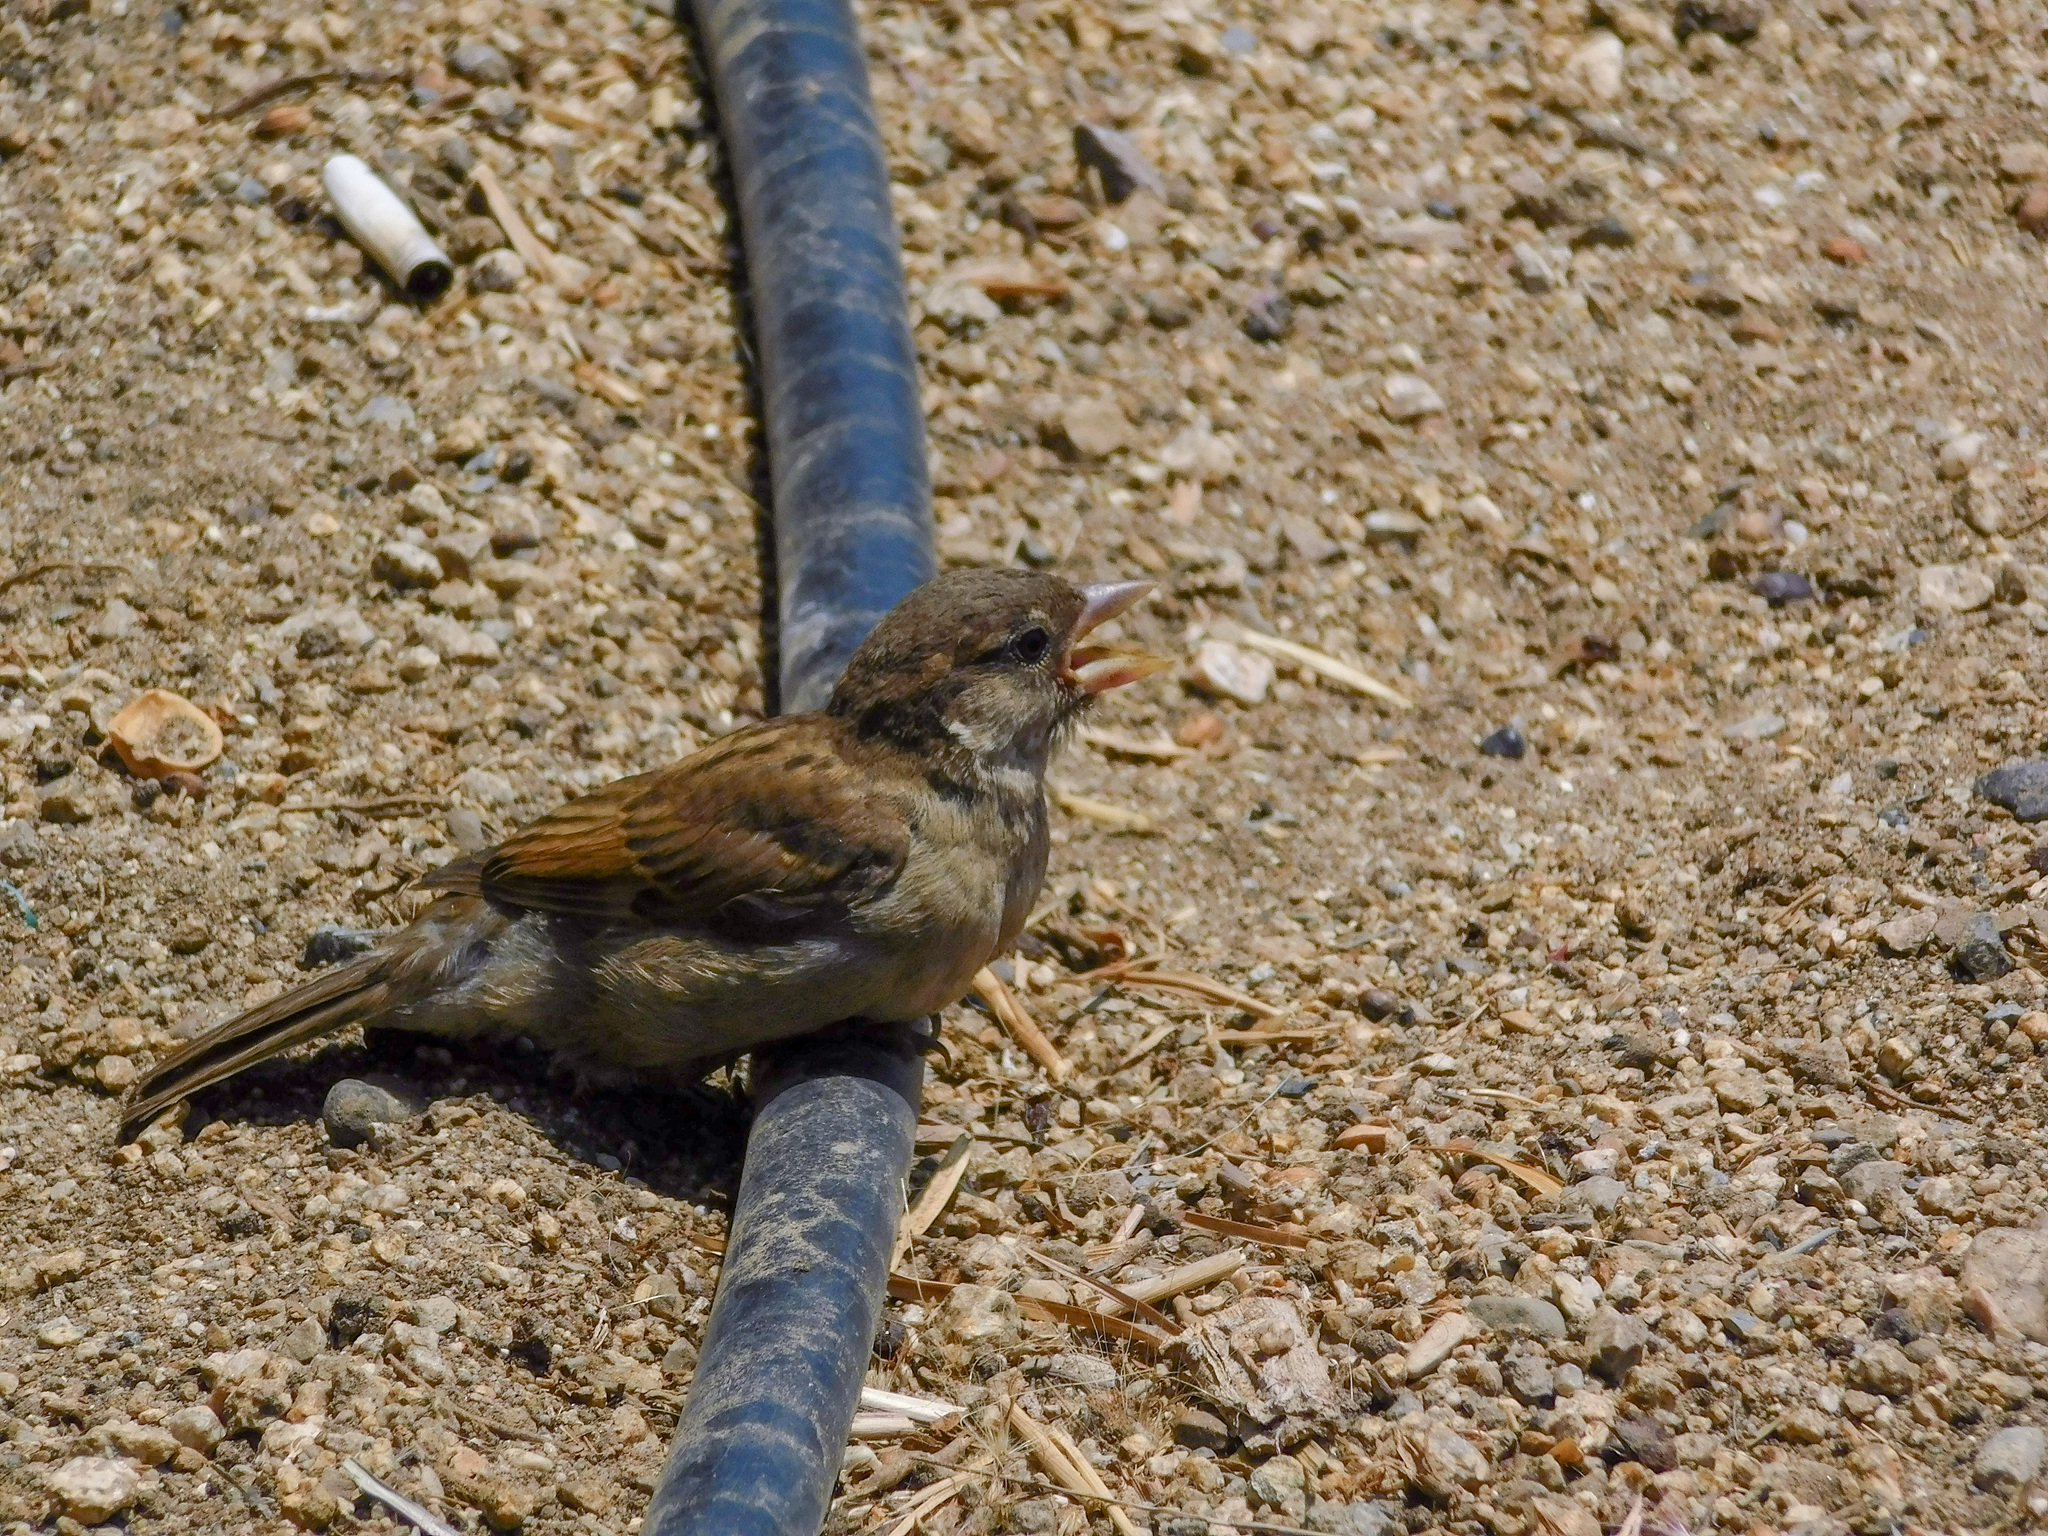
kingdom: Animalia
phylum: Chordata
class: Aves
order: Passeriformes
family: Passeridae
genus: Passer
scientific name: Passer domesticus
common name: House sparrow
